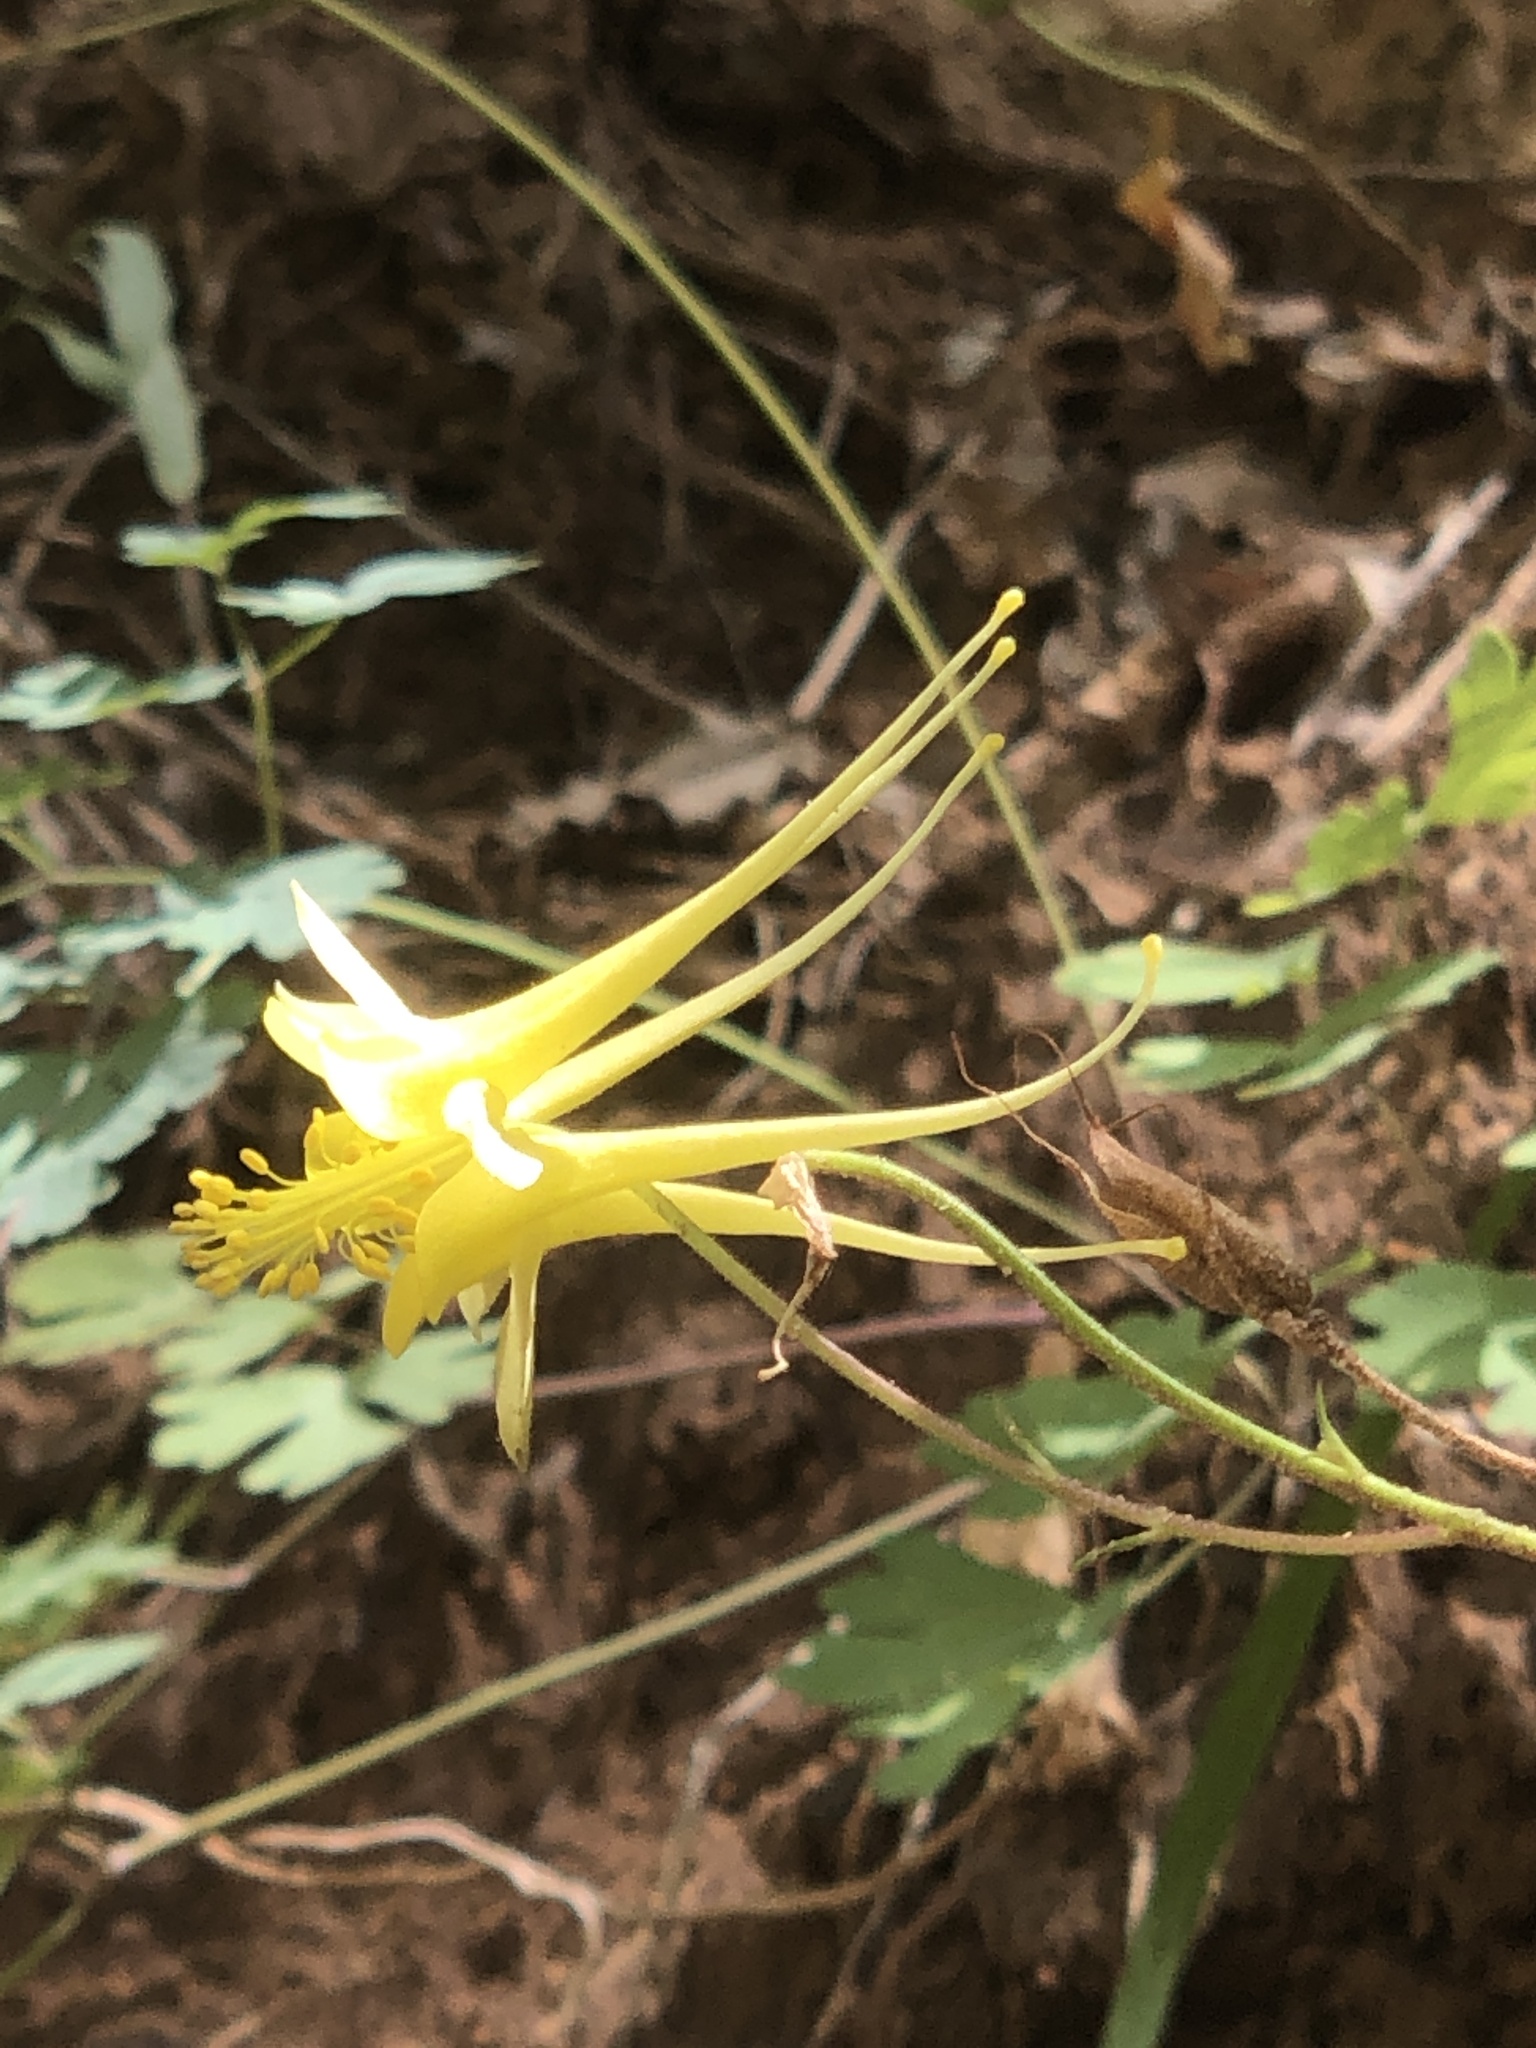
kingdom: Plantae
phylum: Tracheophyta
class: Magnoliopsida
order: Ranunculales
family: Ranunculaceae
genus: Aquilegia
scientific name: Aquilegia chrysantha
